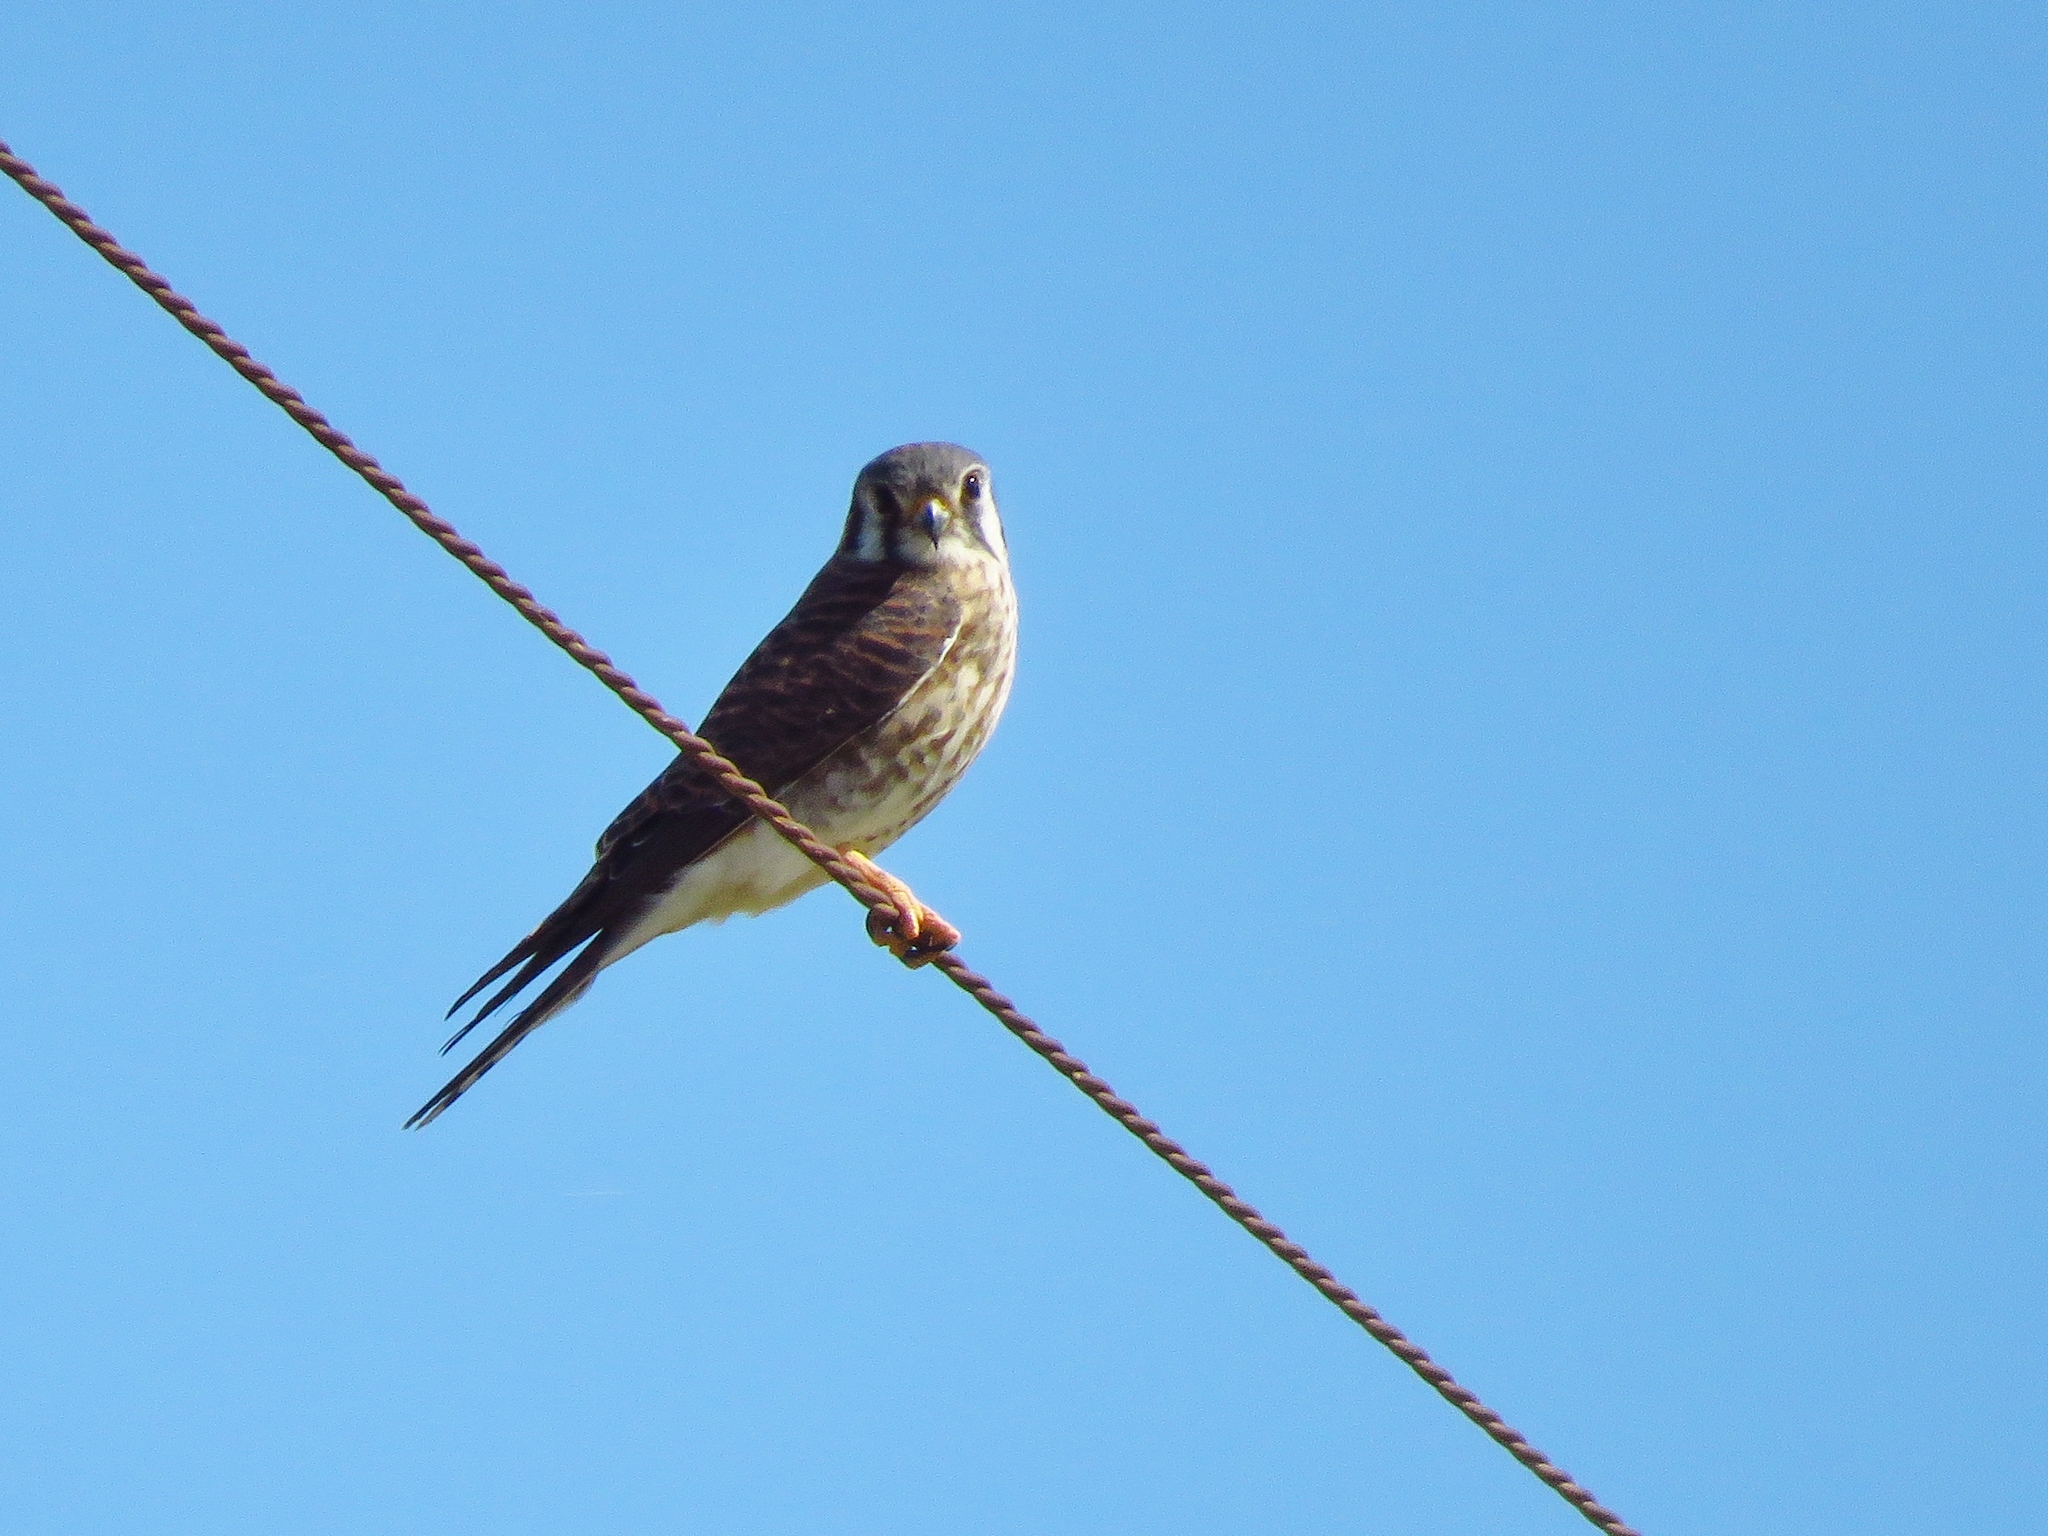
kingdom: Animalia
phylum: Chordata
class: Aves
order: Falconiformes
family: Falconidae
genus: Falco
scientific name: Falco sparverius
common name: American kestrel
